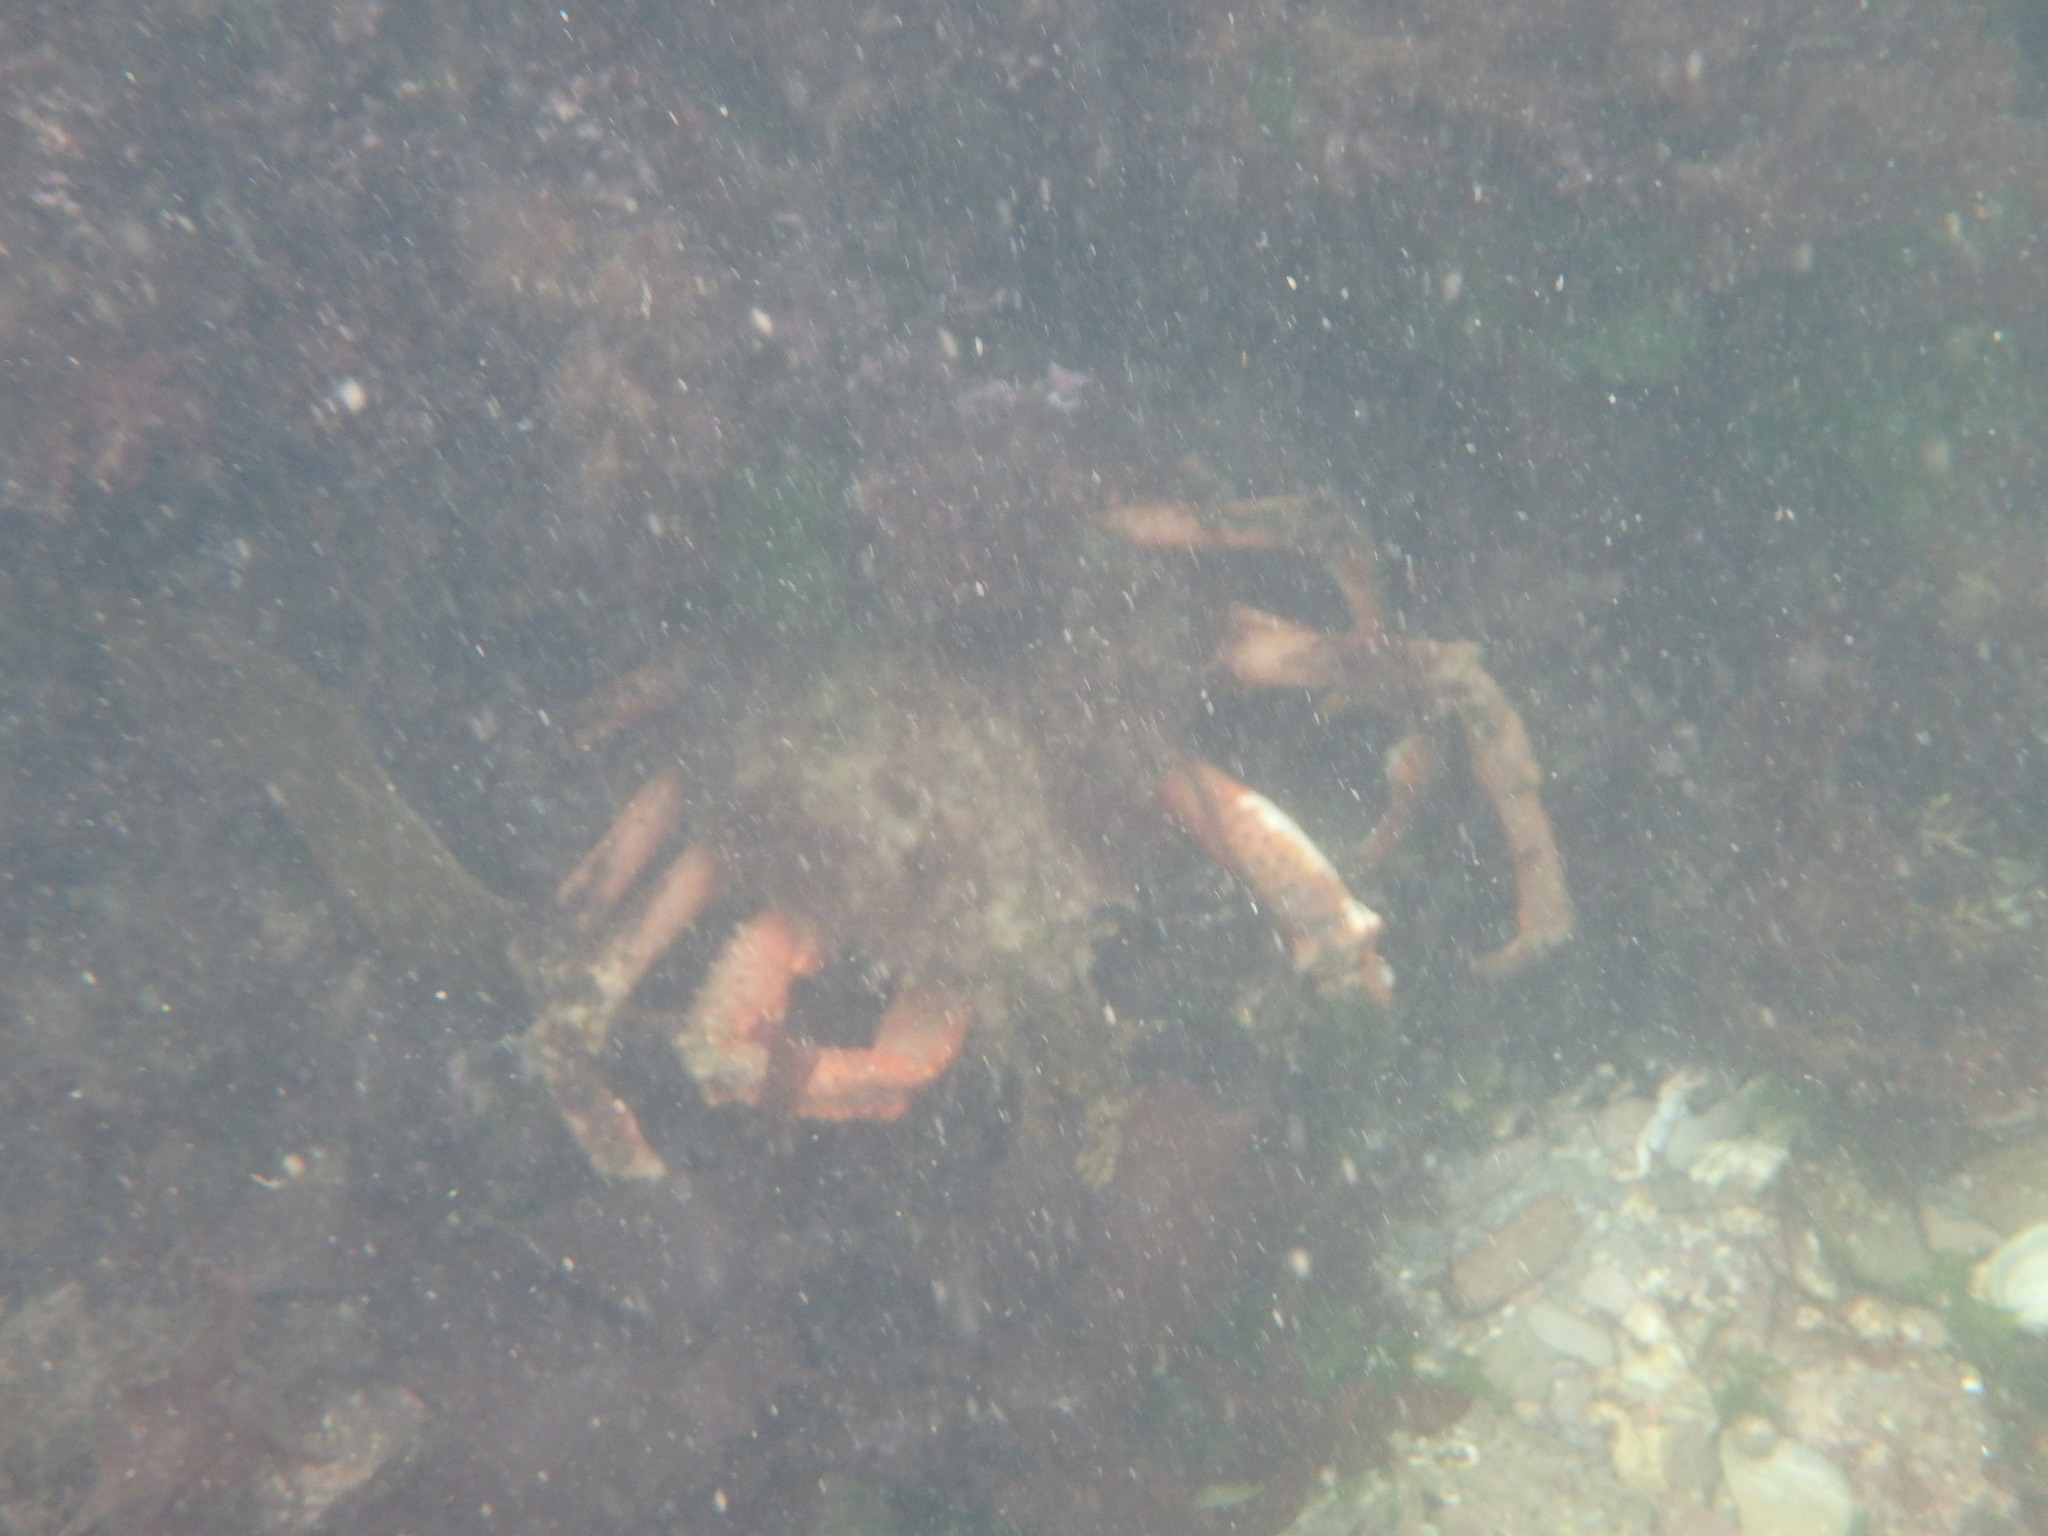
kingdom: Animalia
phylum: Arthropoda
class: Malacostraca
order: Decapoda
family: Majidae
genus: Maja
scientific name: Maja brachydactyla
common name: Common spider crab
